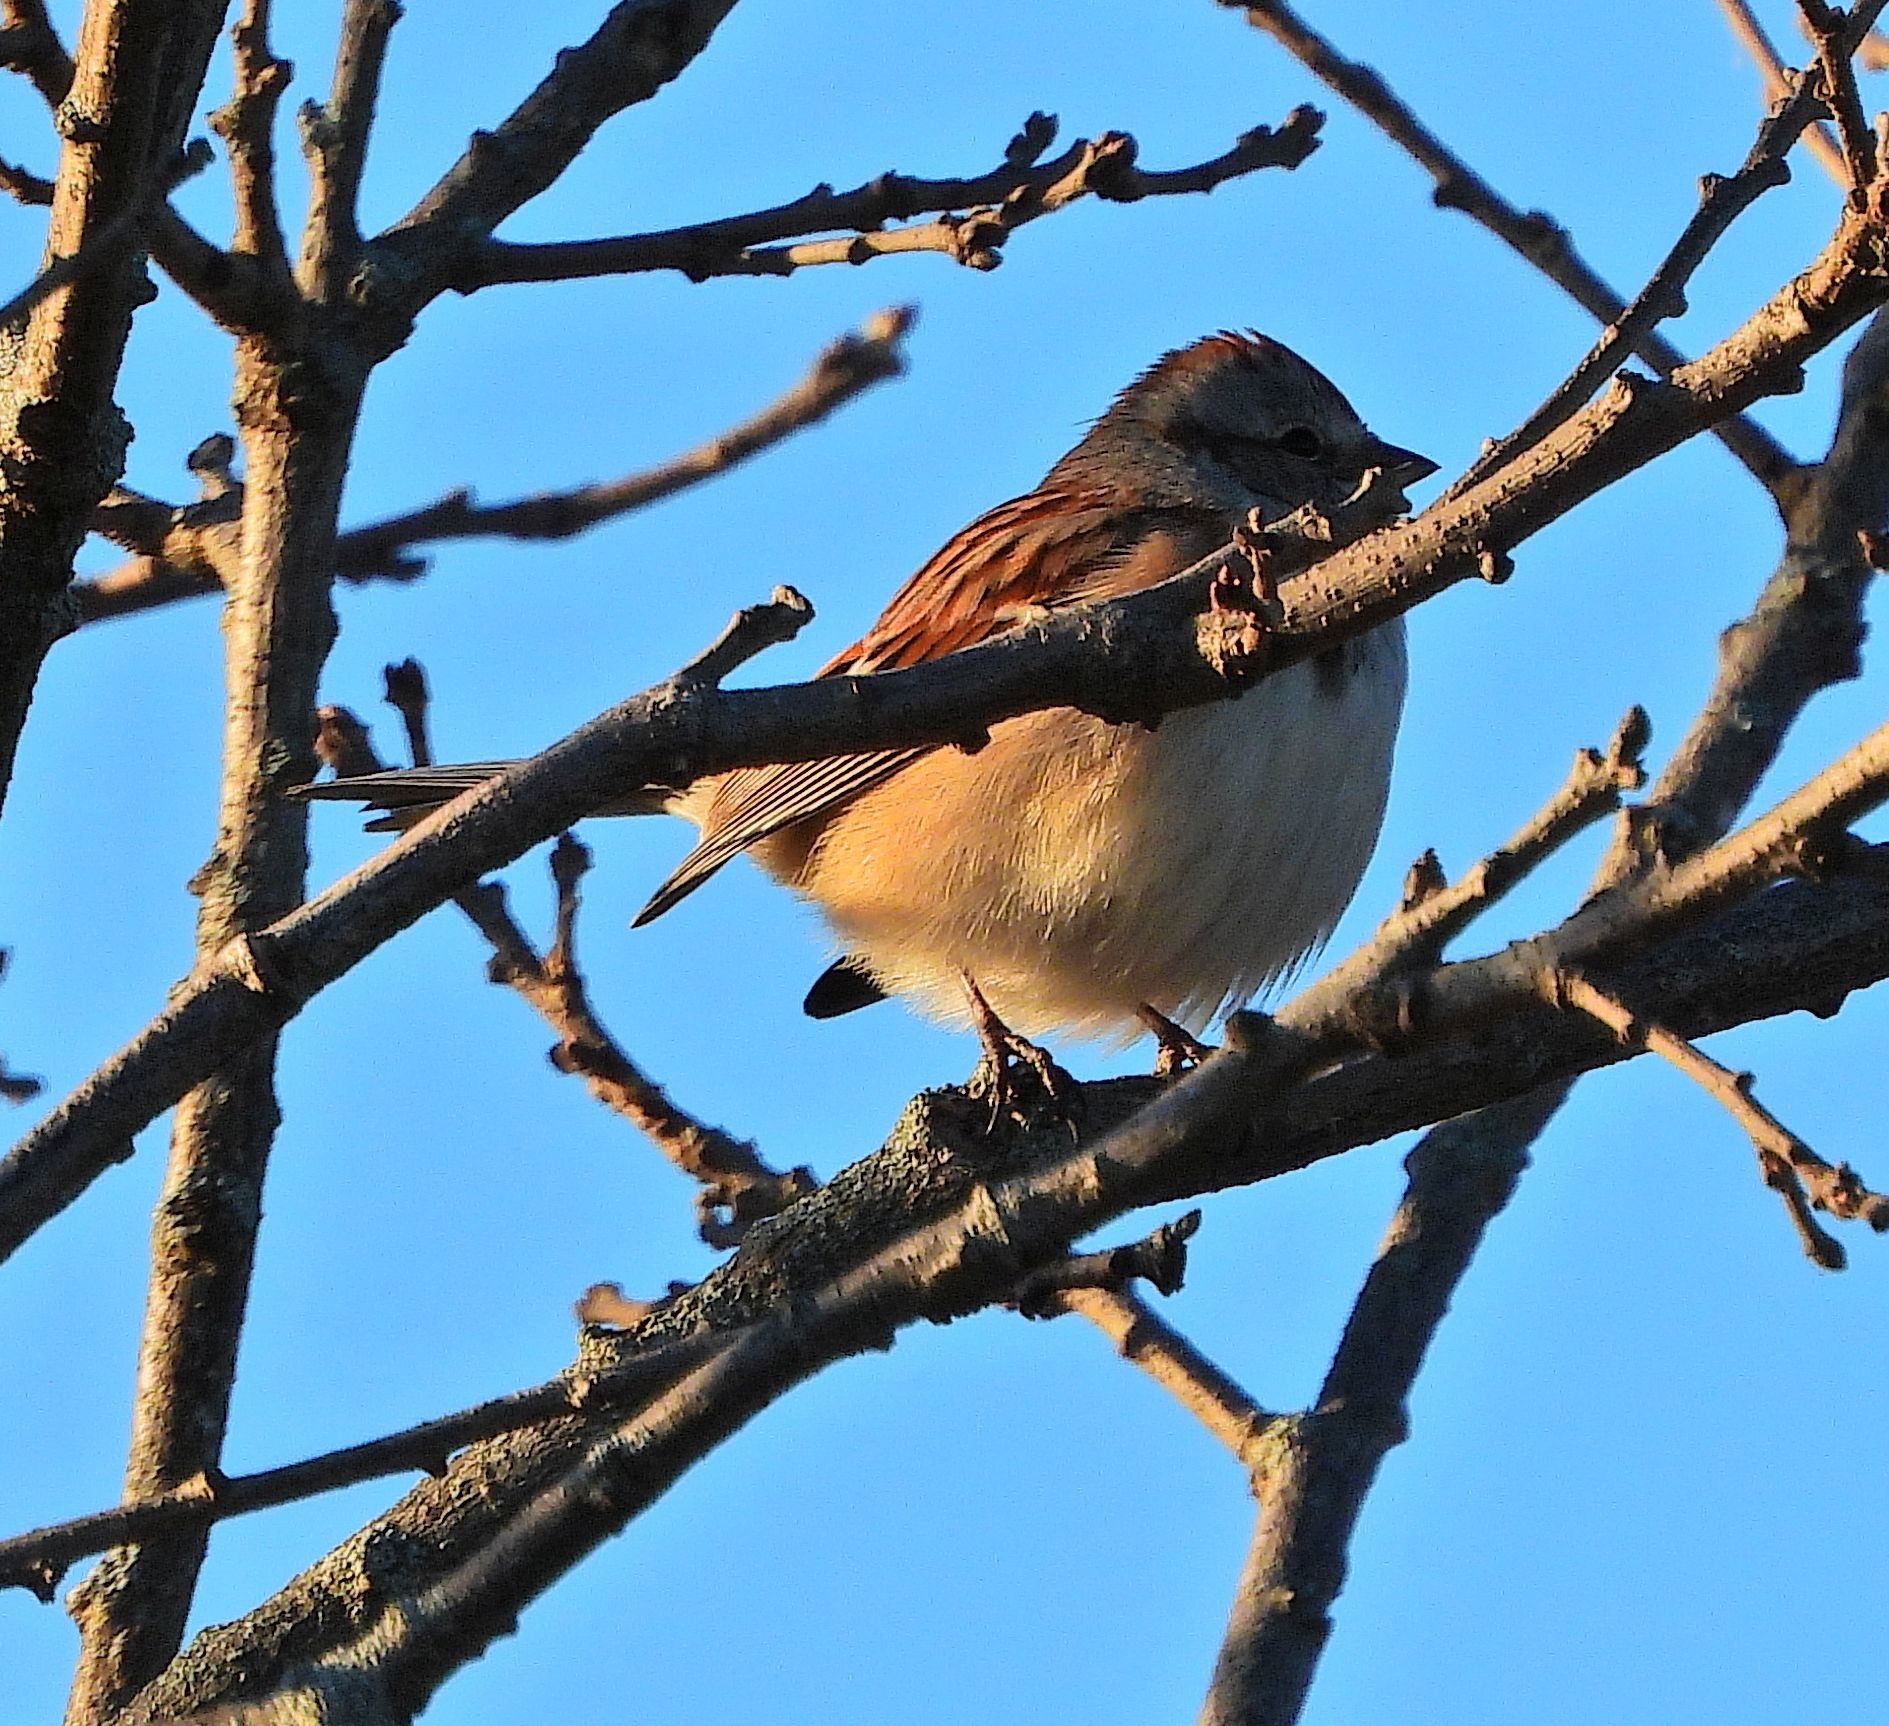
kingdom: Animalia
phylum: Chordata
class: Aves
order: Passeriformes
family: Passerellidae
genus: Spizelloides
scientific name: Spizelloides arborea
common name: American tree sparrow
